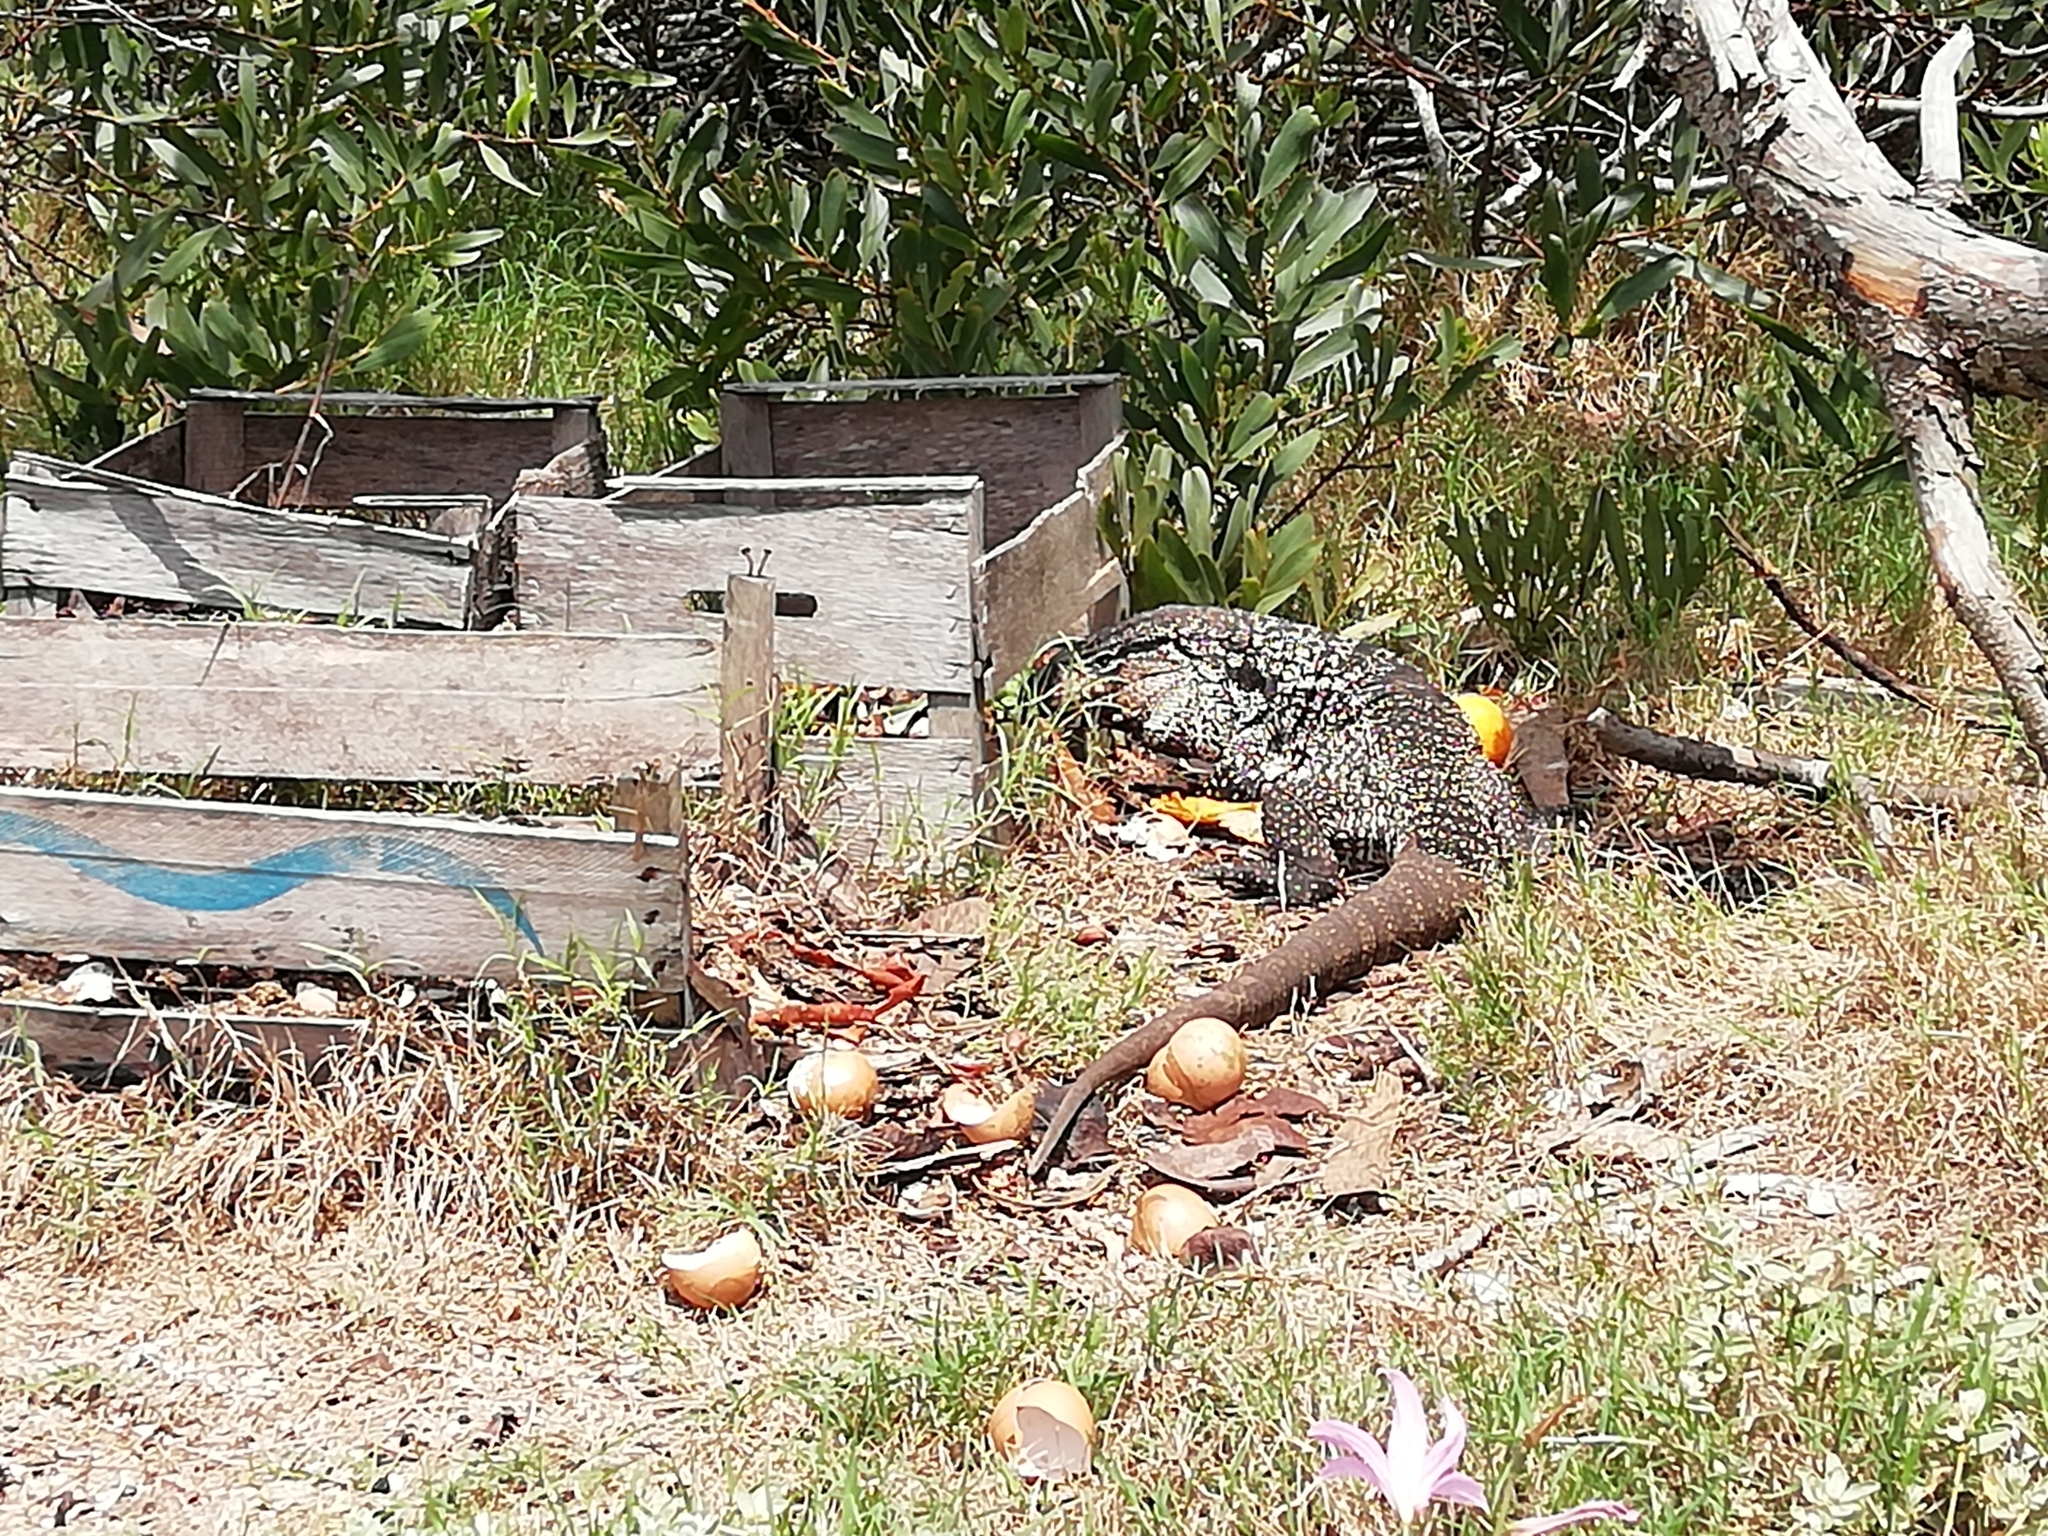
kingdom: Animalia
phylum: Chordata
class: Squamata
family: Teiidae
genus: Salvator
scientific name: Salvator merianae
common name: Argentine black and white tegu
